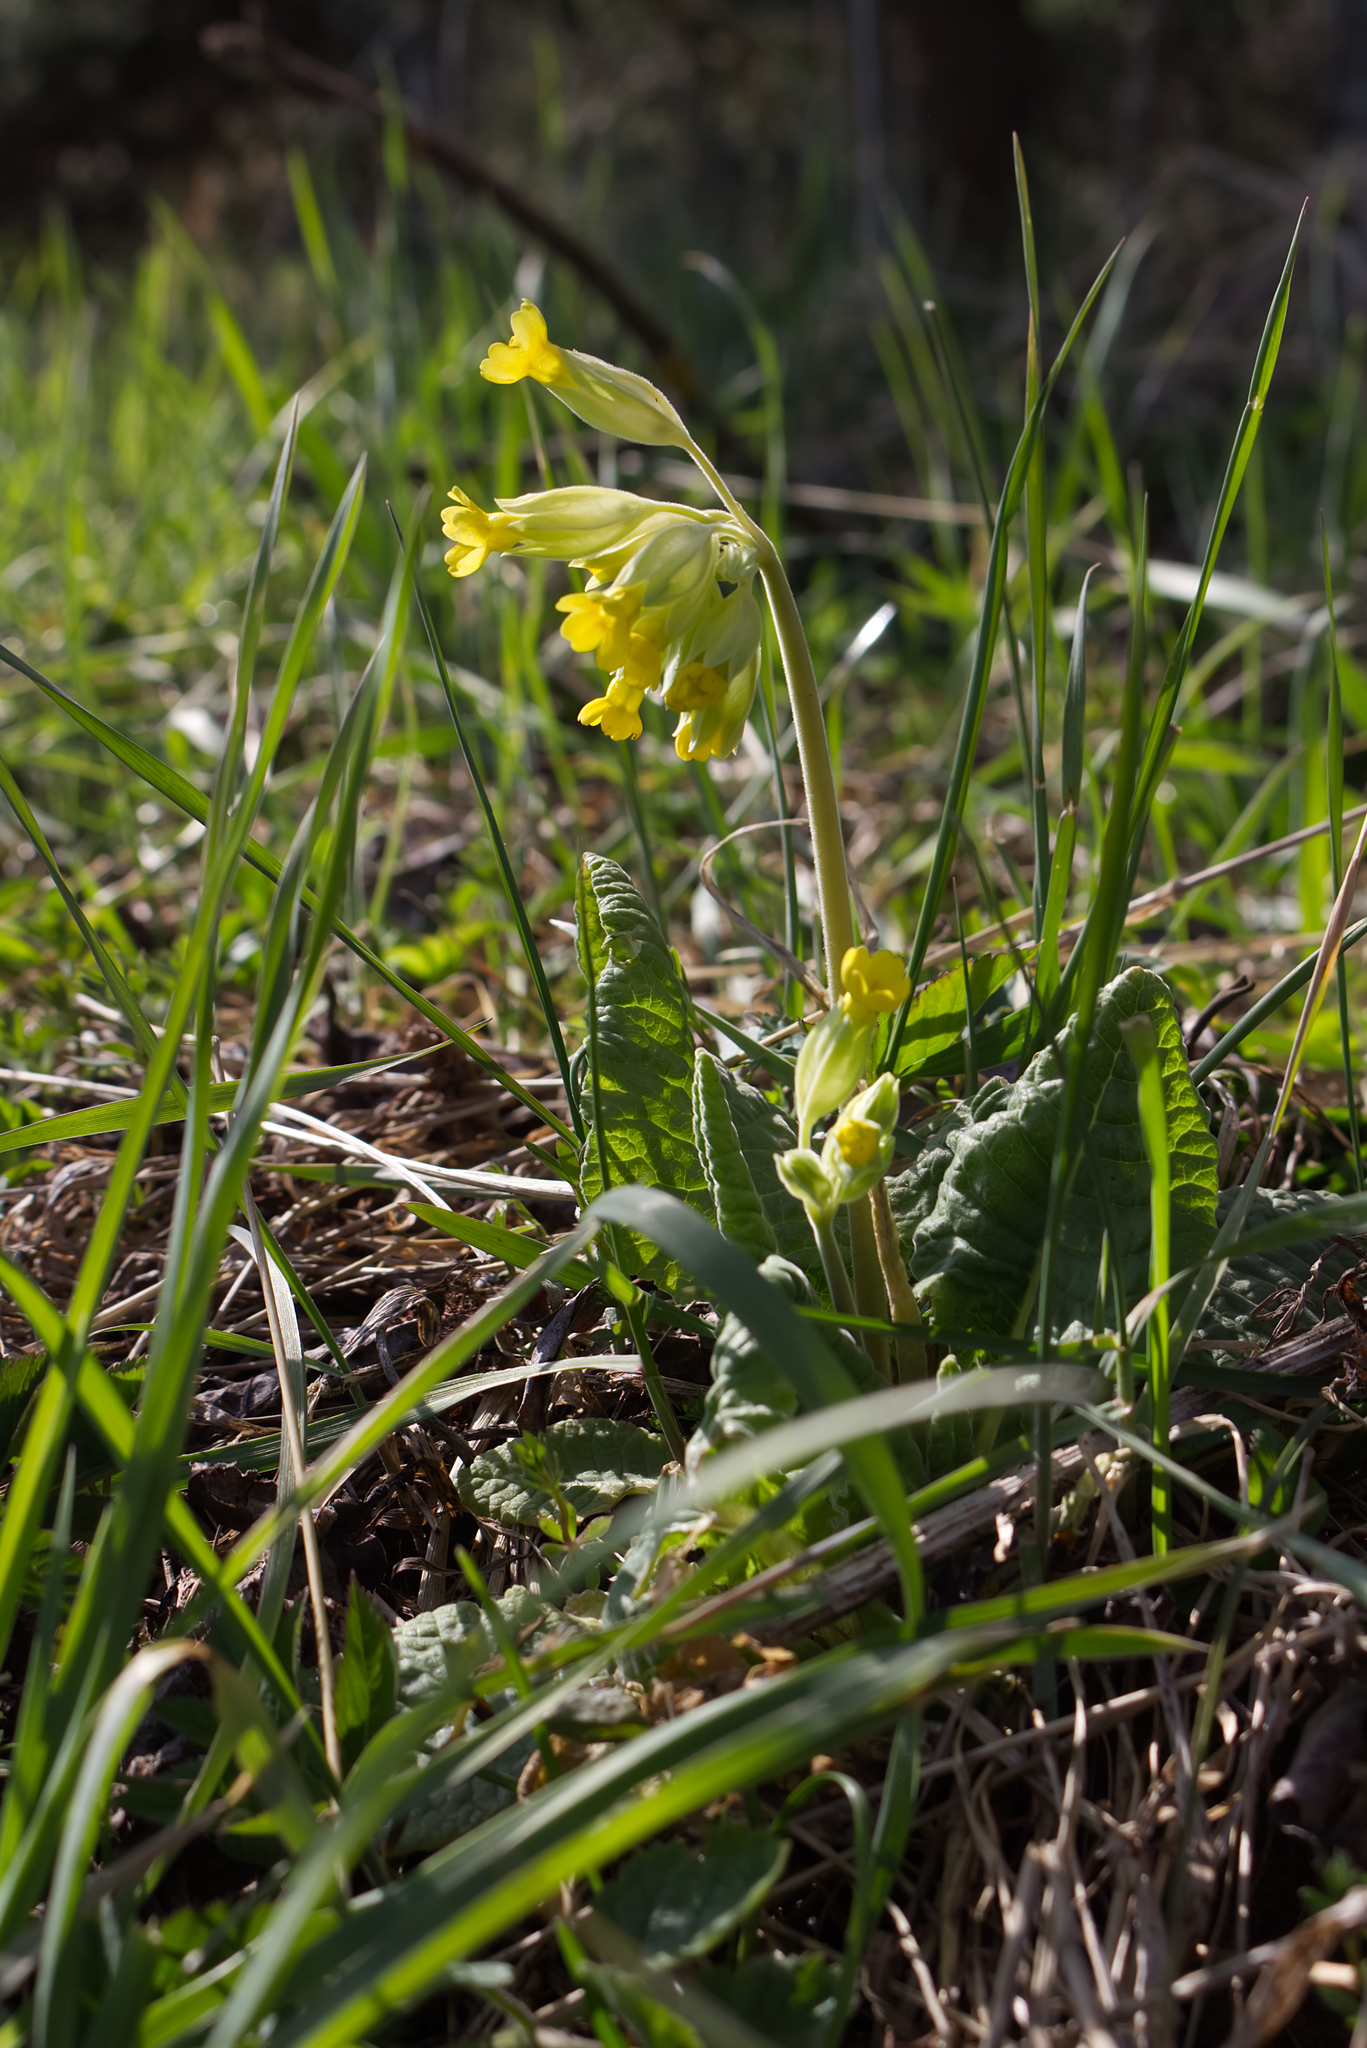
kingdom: Plantae
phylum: Tracheophyta
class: Magnoliopsida
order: Ericales
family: Primulaceae
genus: Primula
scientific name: Primula veris
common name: Cowslip
